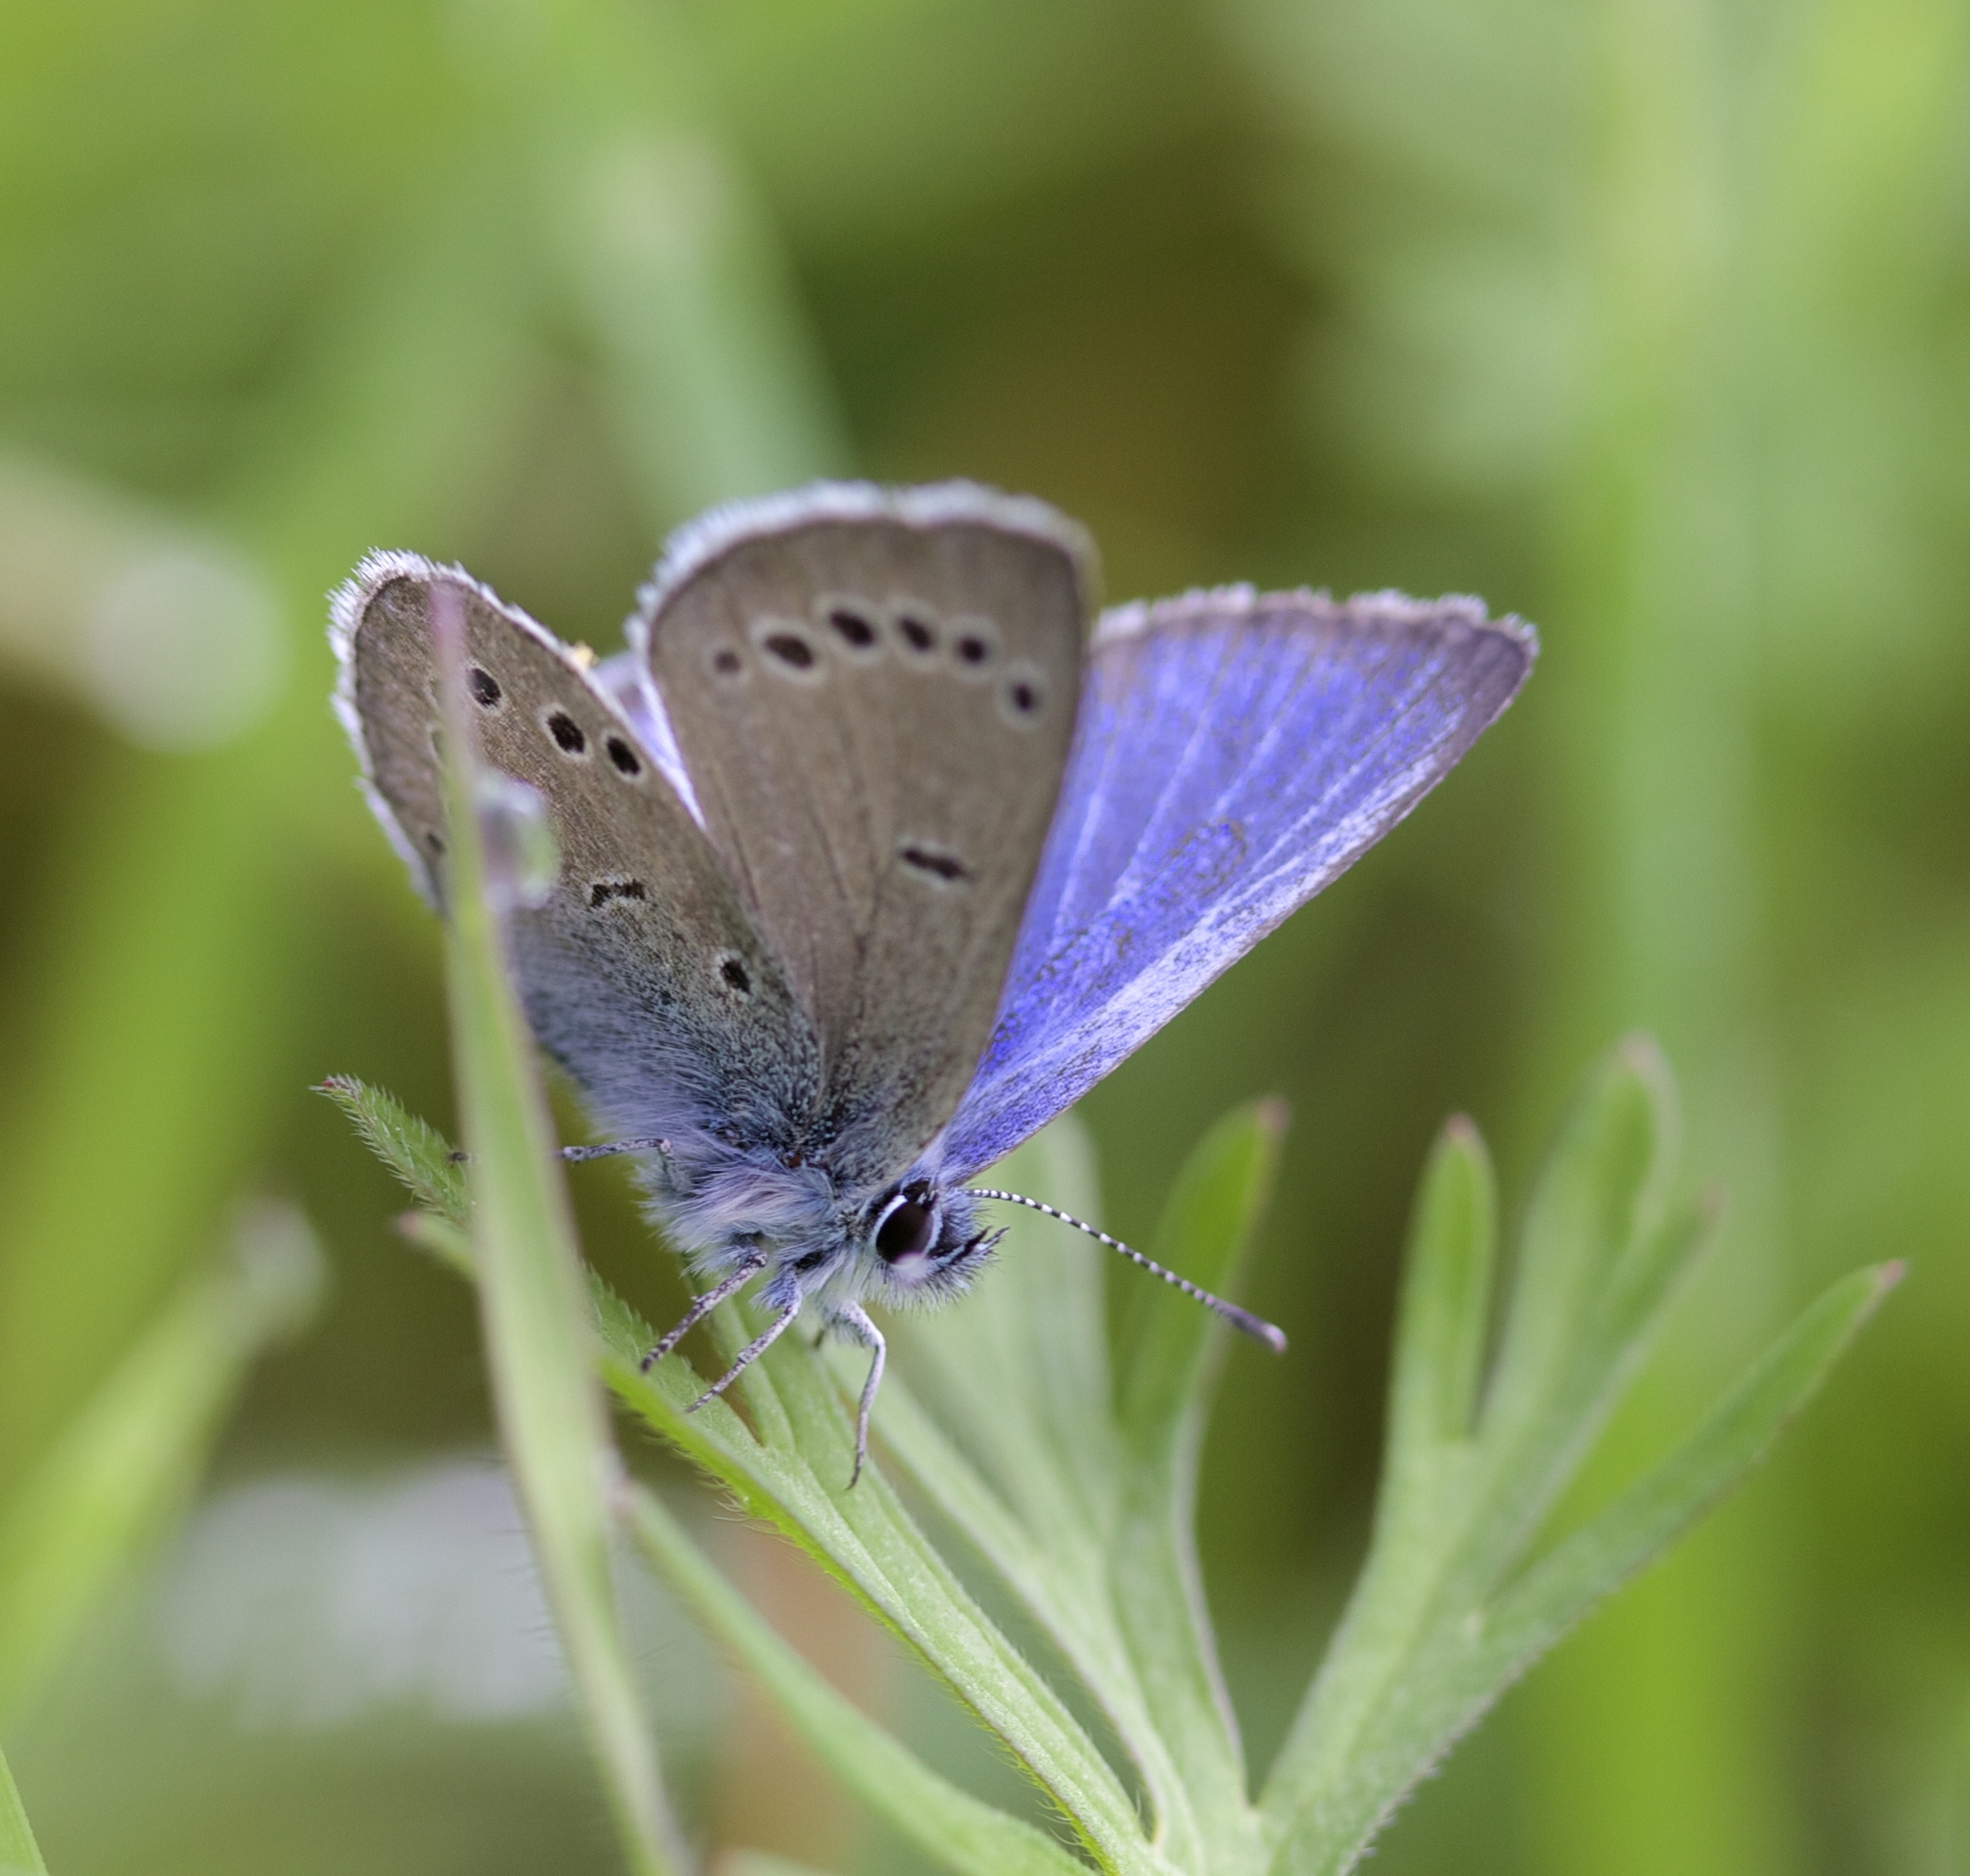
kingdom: Animalia
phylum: Arthropoda
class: Insecta
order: Lepidoptera
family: Lycaenidae
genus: Glaucopsyche
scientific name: Glaucopsyche lygdamus
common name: Silvery blue
